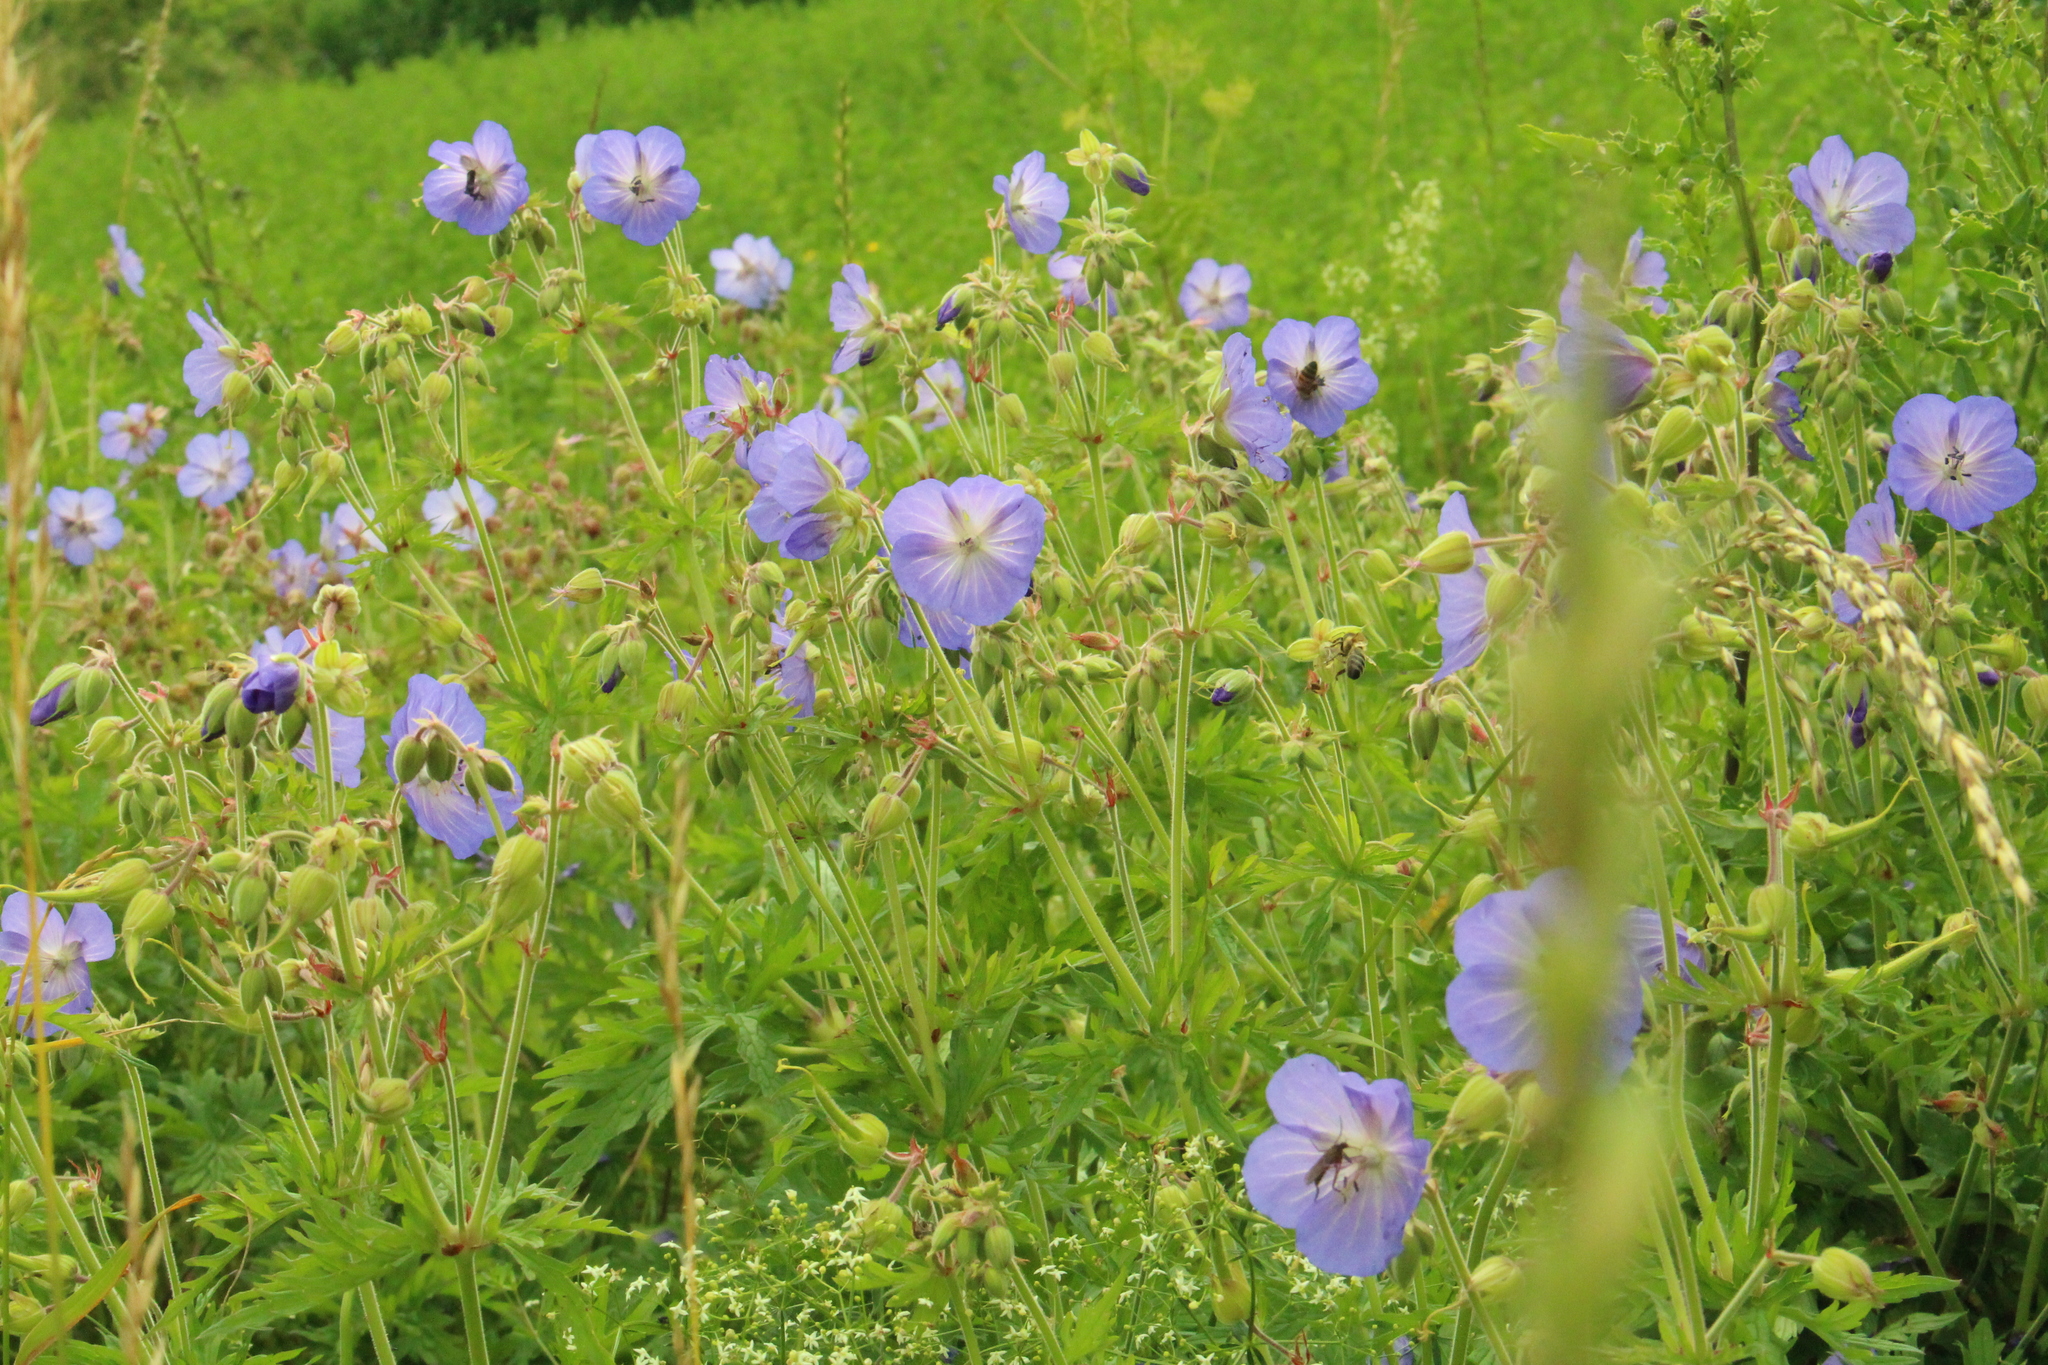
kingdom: Plantae
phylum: Tracheophyta
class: Magnoliopsida
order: Geraniales
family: Geraniaceae
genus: Geranium
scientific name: Geranium pratense
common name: Meadow crane's-bill
